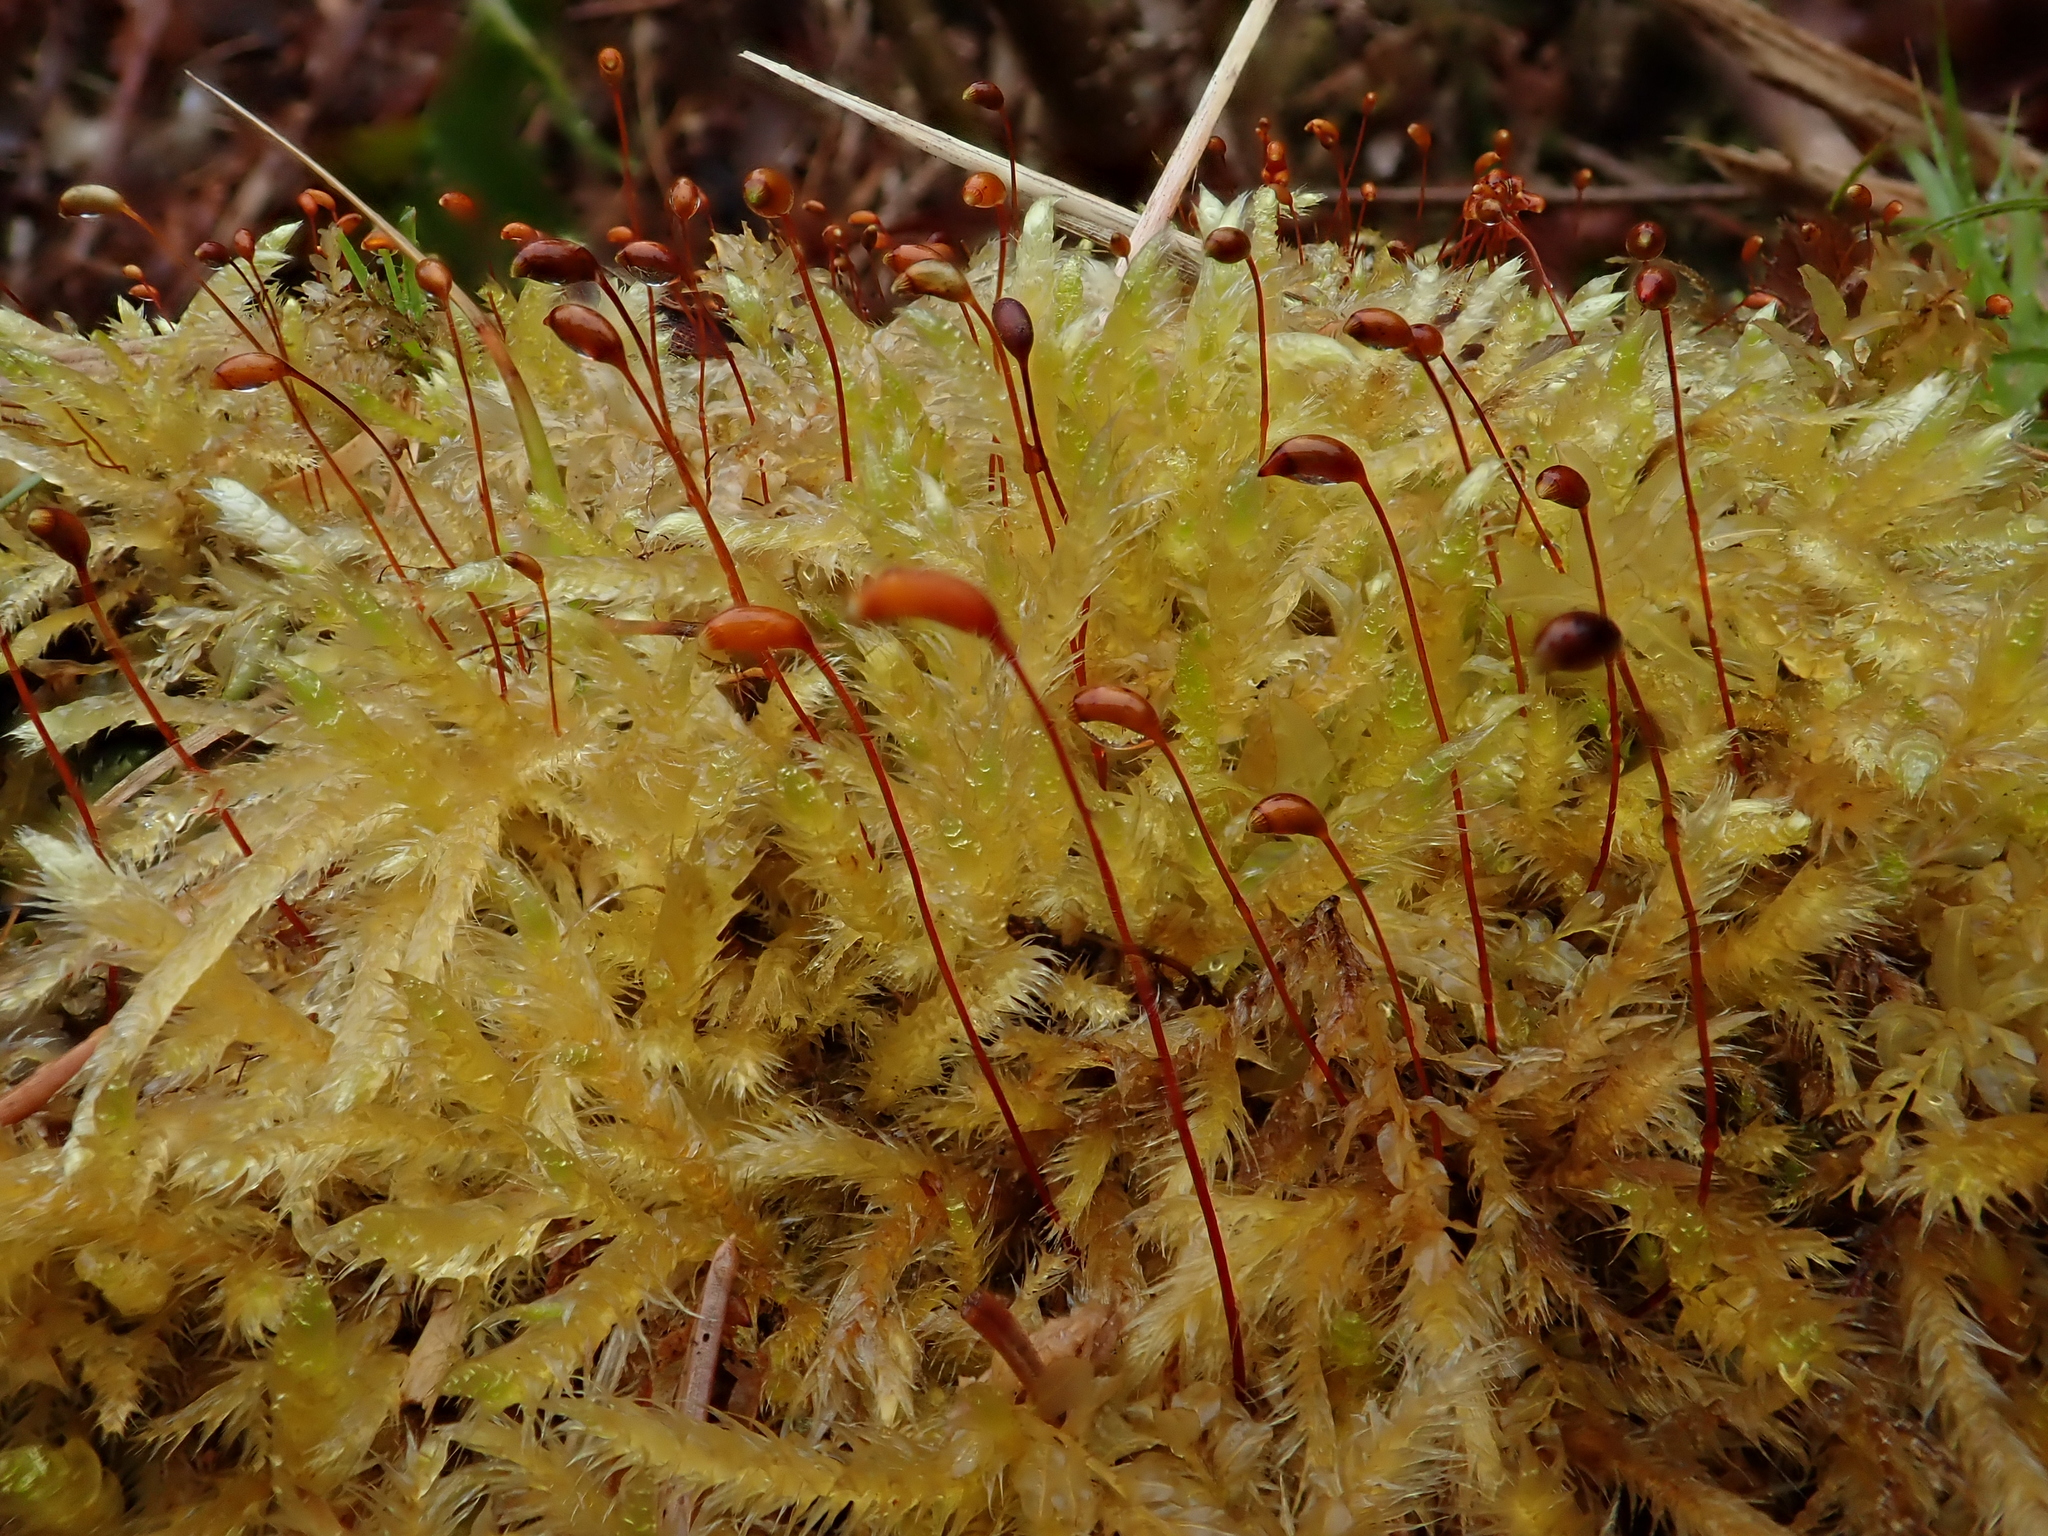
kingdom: Plantae
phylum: Bryophyta
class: Bryopsida
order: Hypnales
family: Brachytheciaceae
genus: Brachythecium
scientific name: Brachythecium salebrosum
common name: Smooth-stalk feather-moss
